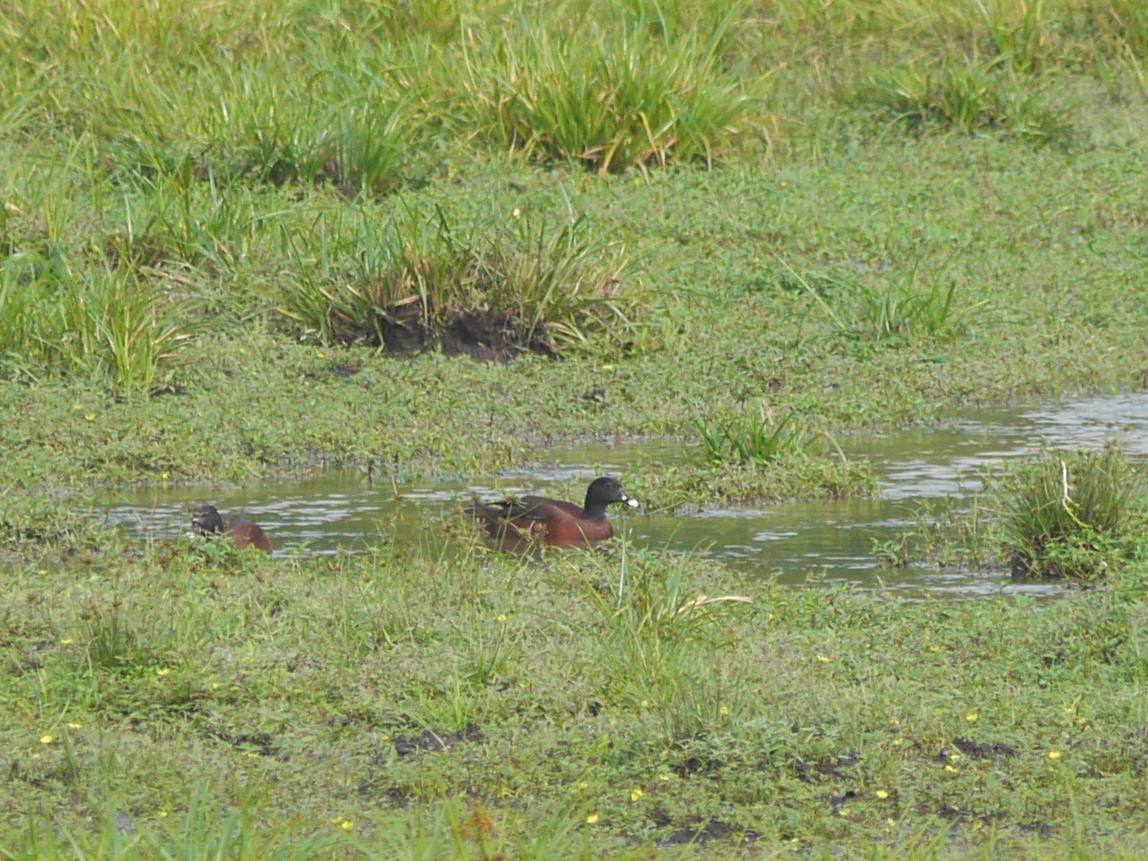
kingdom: Animalia
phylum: Chordata
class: Aves
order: Anseriformes
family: Anatidae
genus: Pteronetta
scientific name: Pteronetta hartlaubii
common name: Hartlaub's duck
